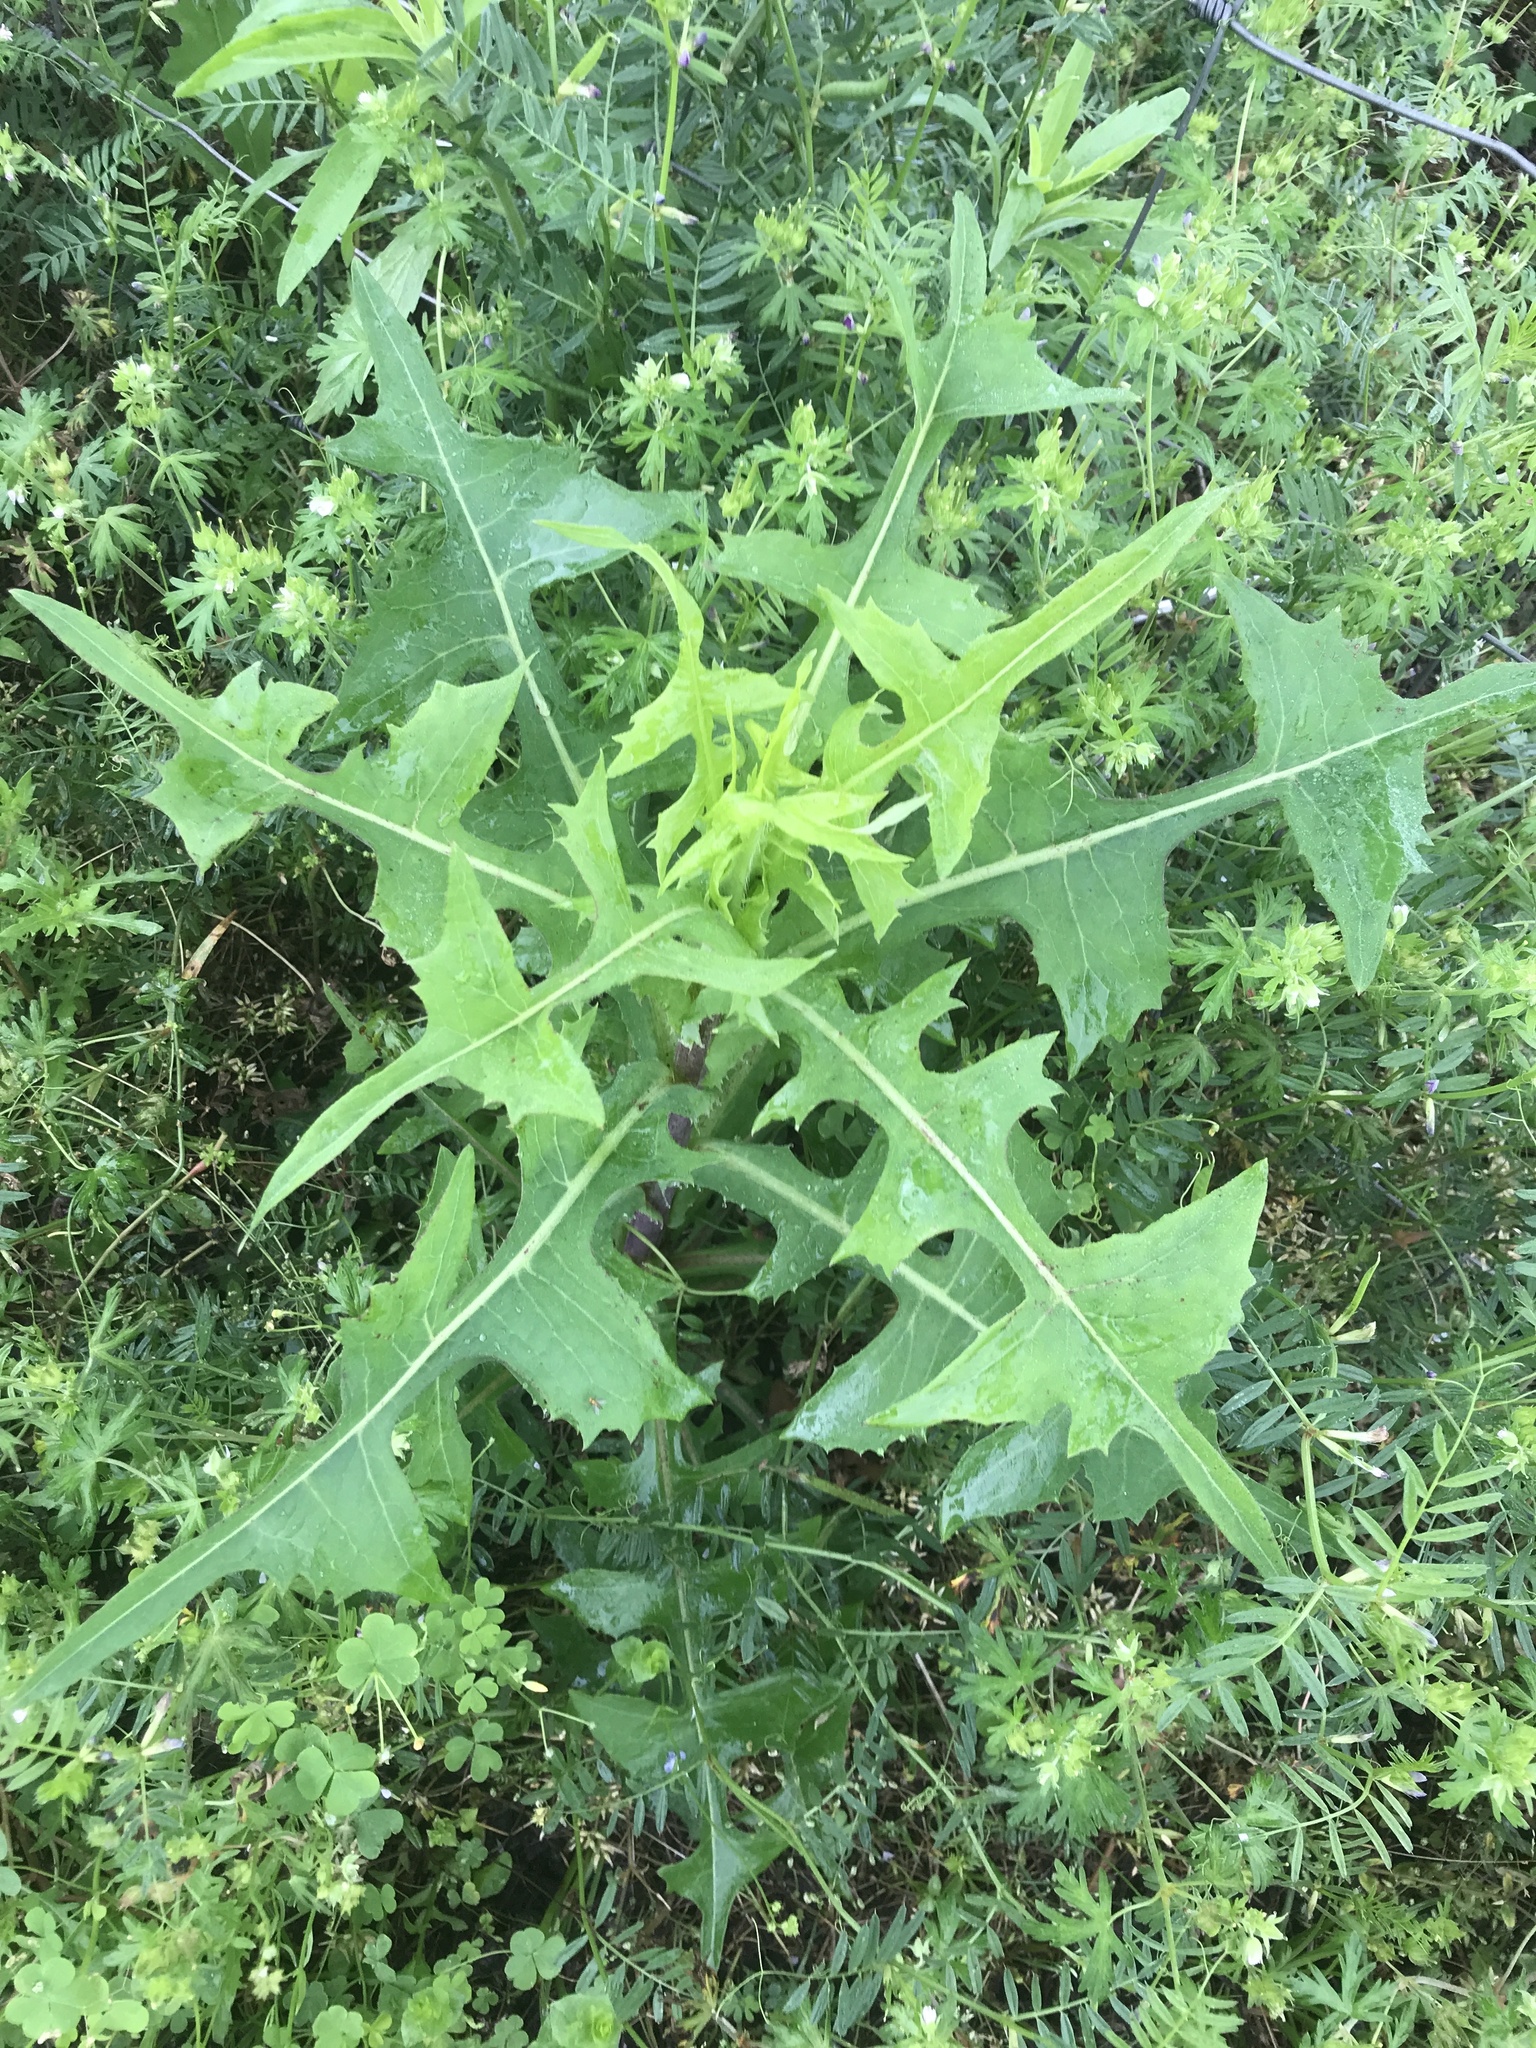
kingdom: Plantae
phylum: Tracheophyta
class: Magnoliopsida
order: Asterales
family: Asteraceae
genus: Lactuca
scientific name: Lactuca canadensis
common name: Canada lettuce
